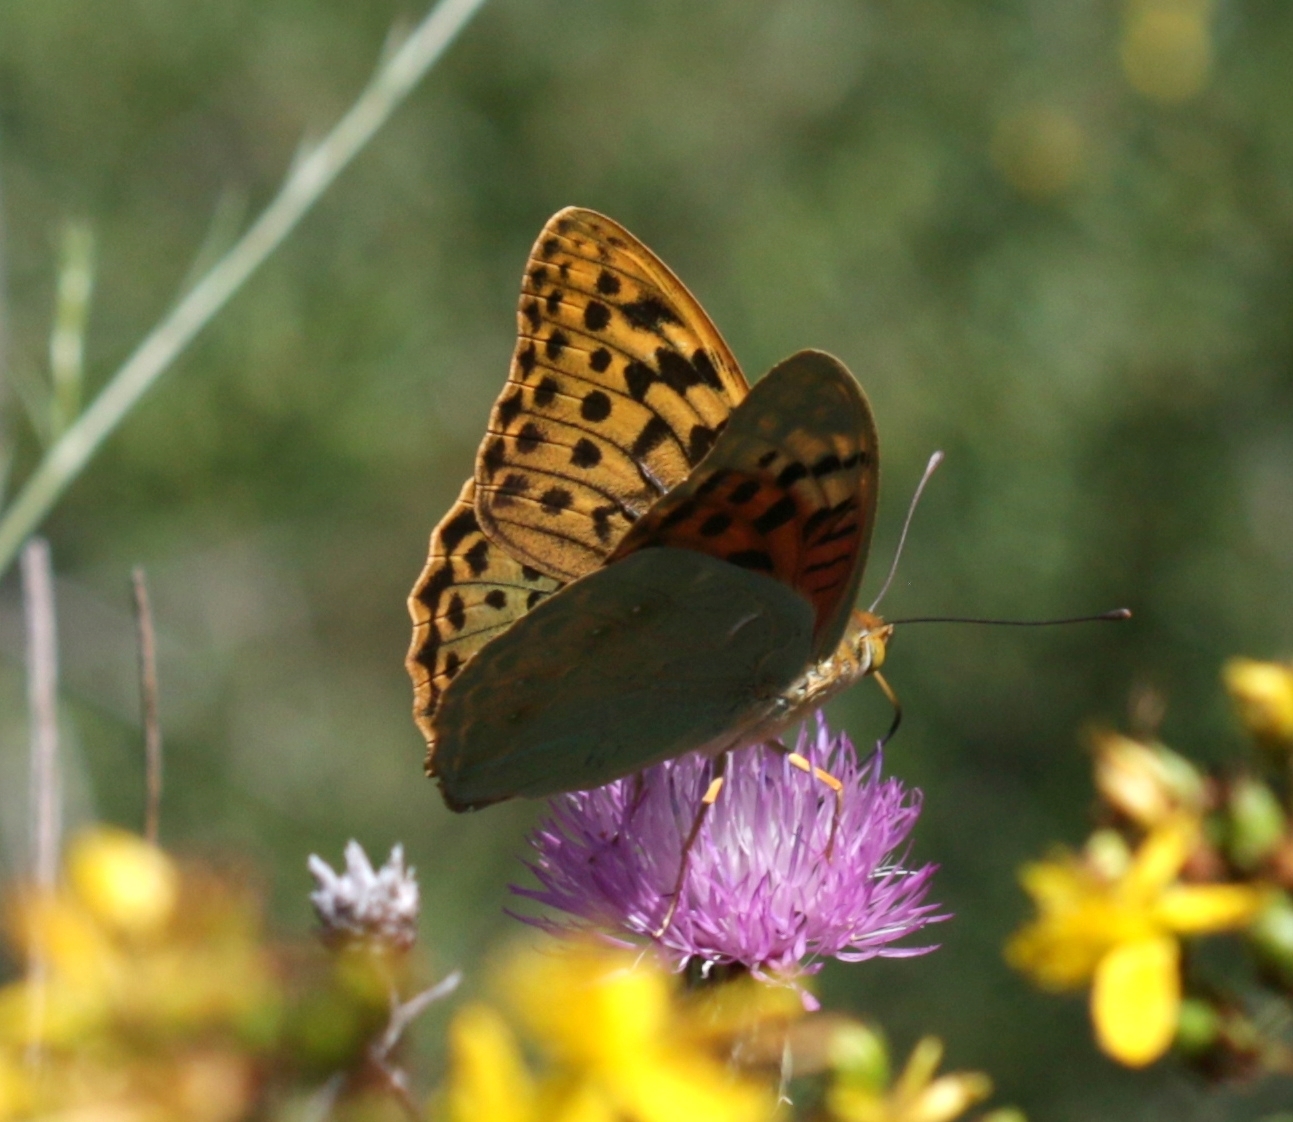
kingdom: Animalia
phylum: Arthropoda
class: Insecta
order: Lepidoptera
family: Nymphalidae
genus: Damora
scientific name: Damora pandora
